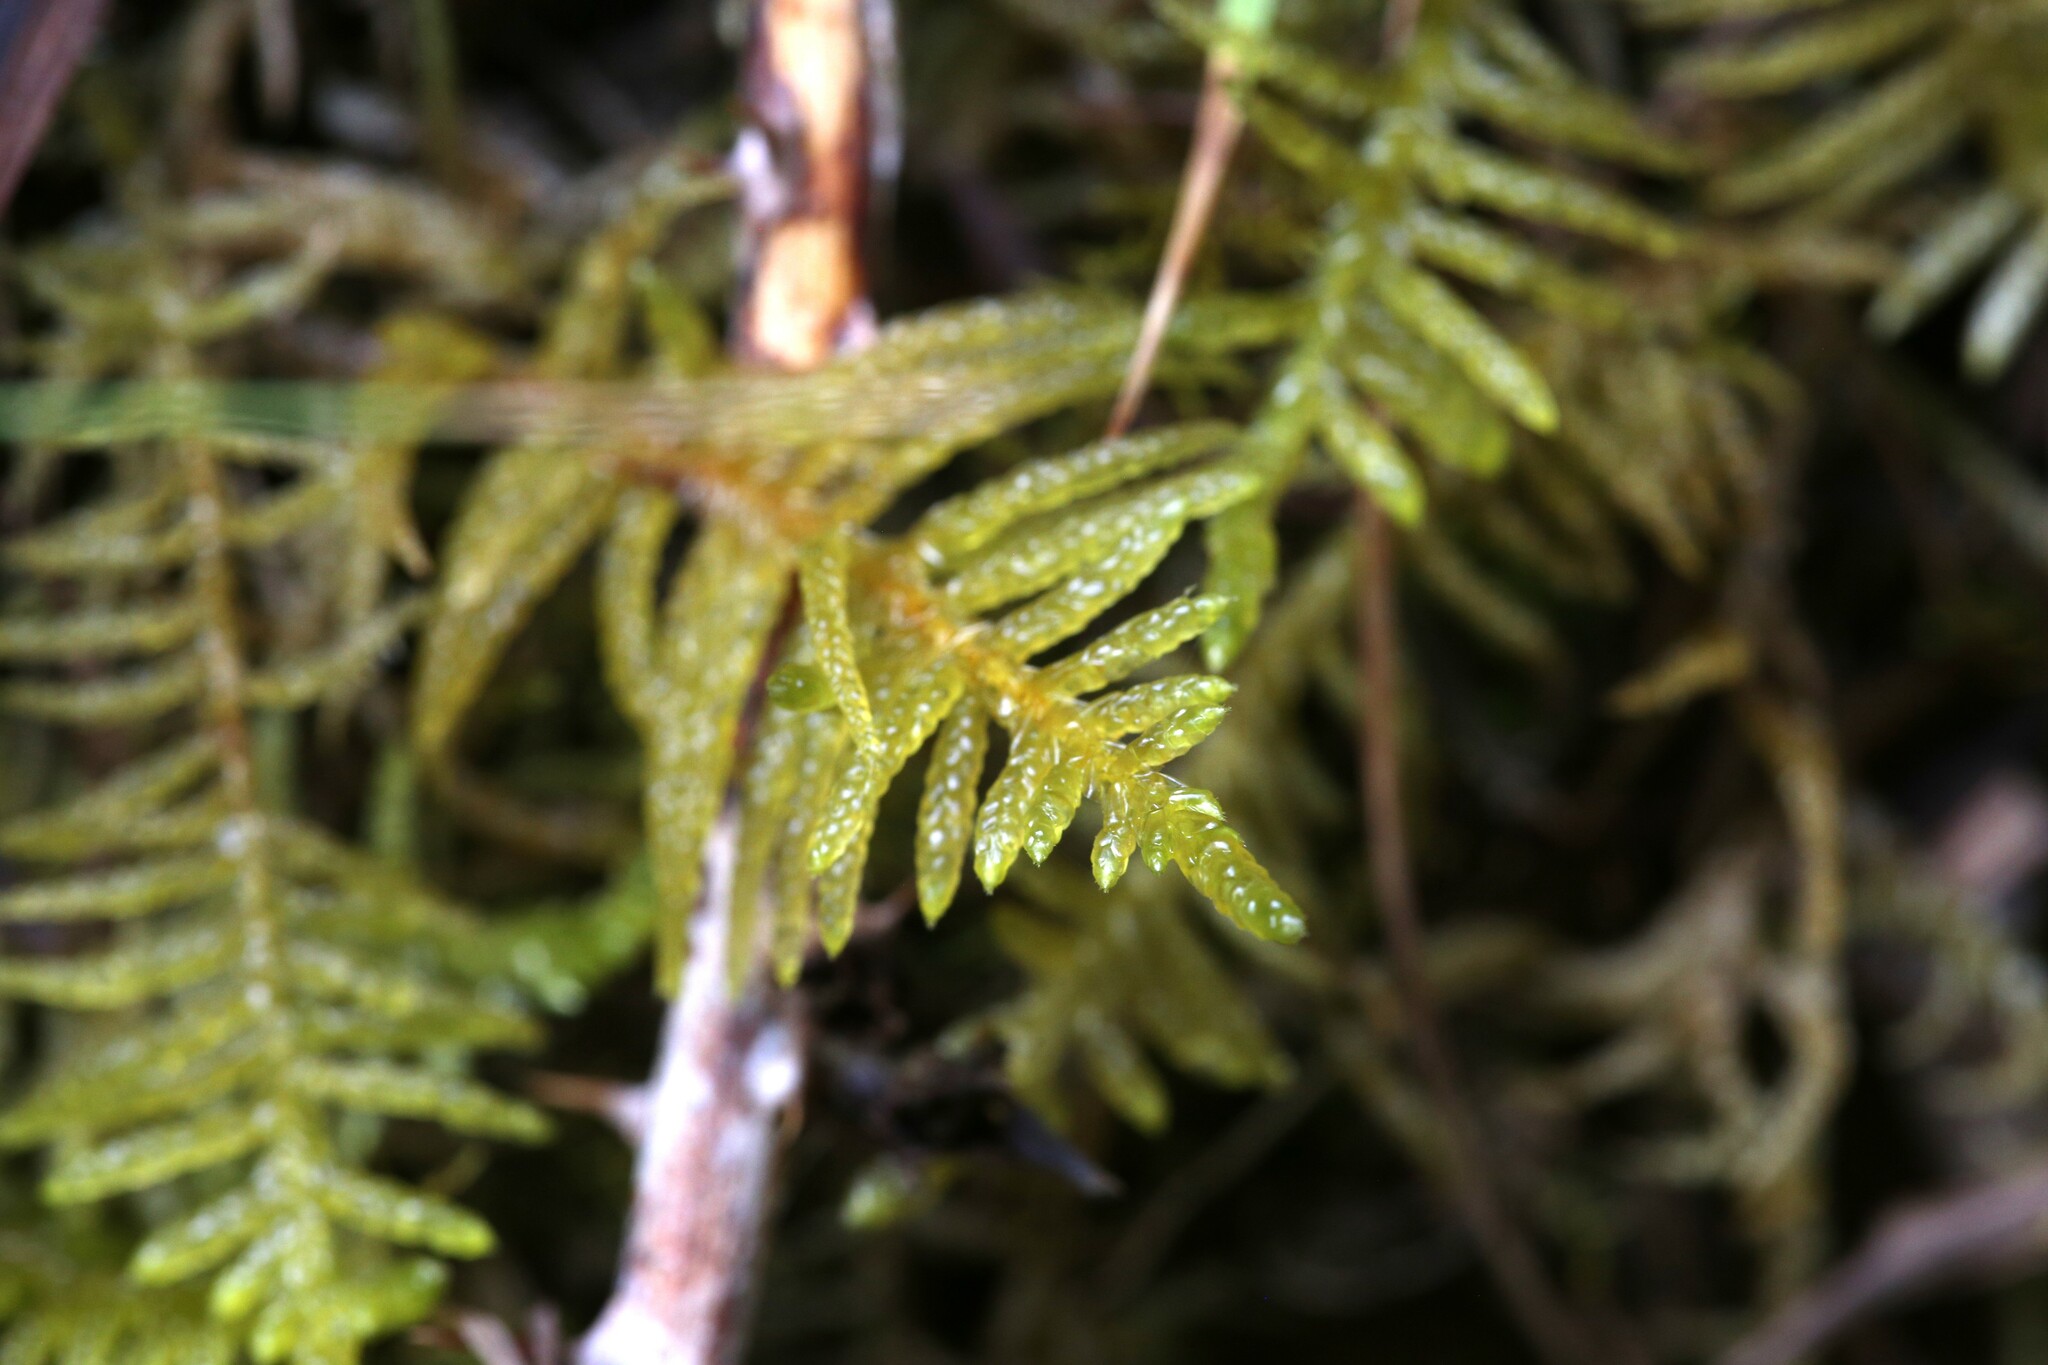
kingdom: Plantae
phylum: Bryophyta
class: Bryopsida
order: Hypnales
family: Brachytheciaceae
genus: Pseudoscleropodium
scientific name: Pseudoscleropodium purum
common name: Neat feather-moss
